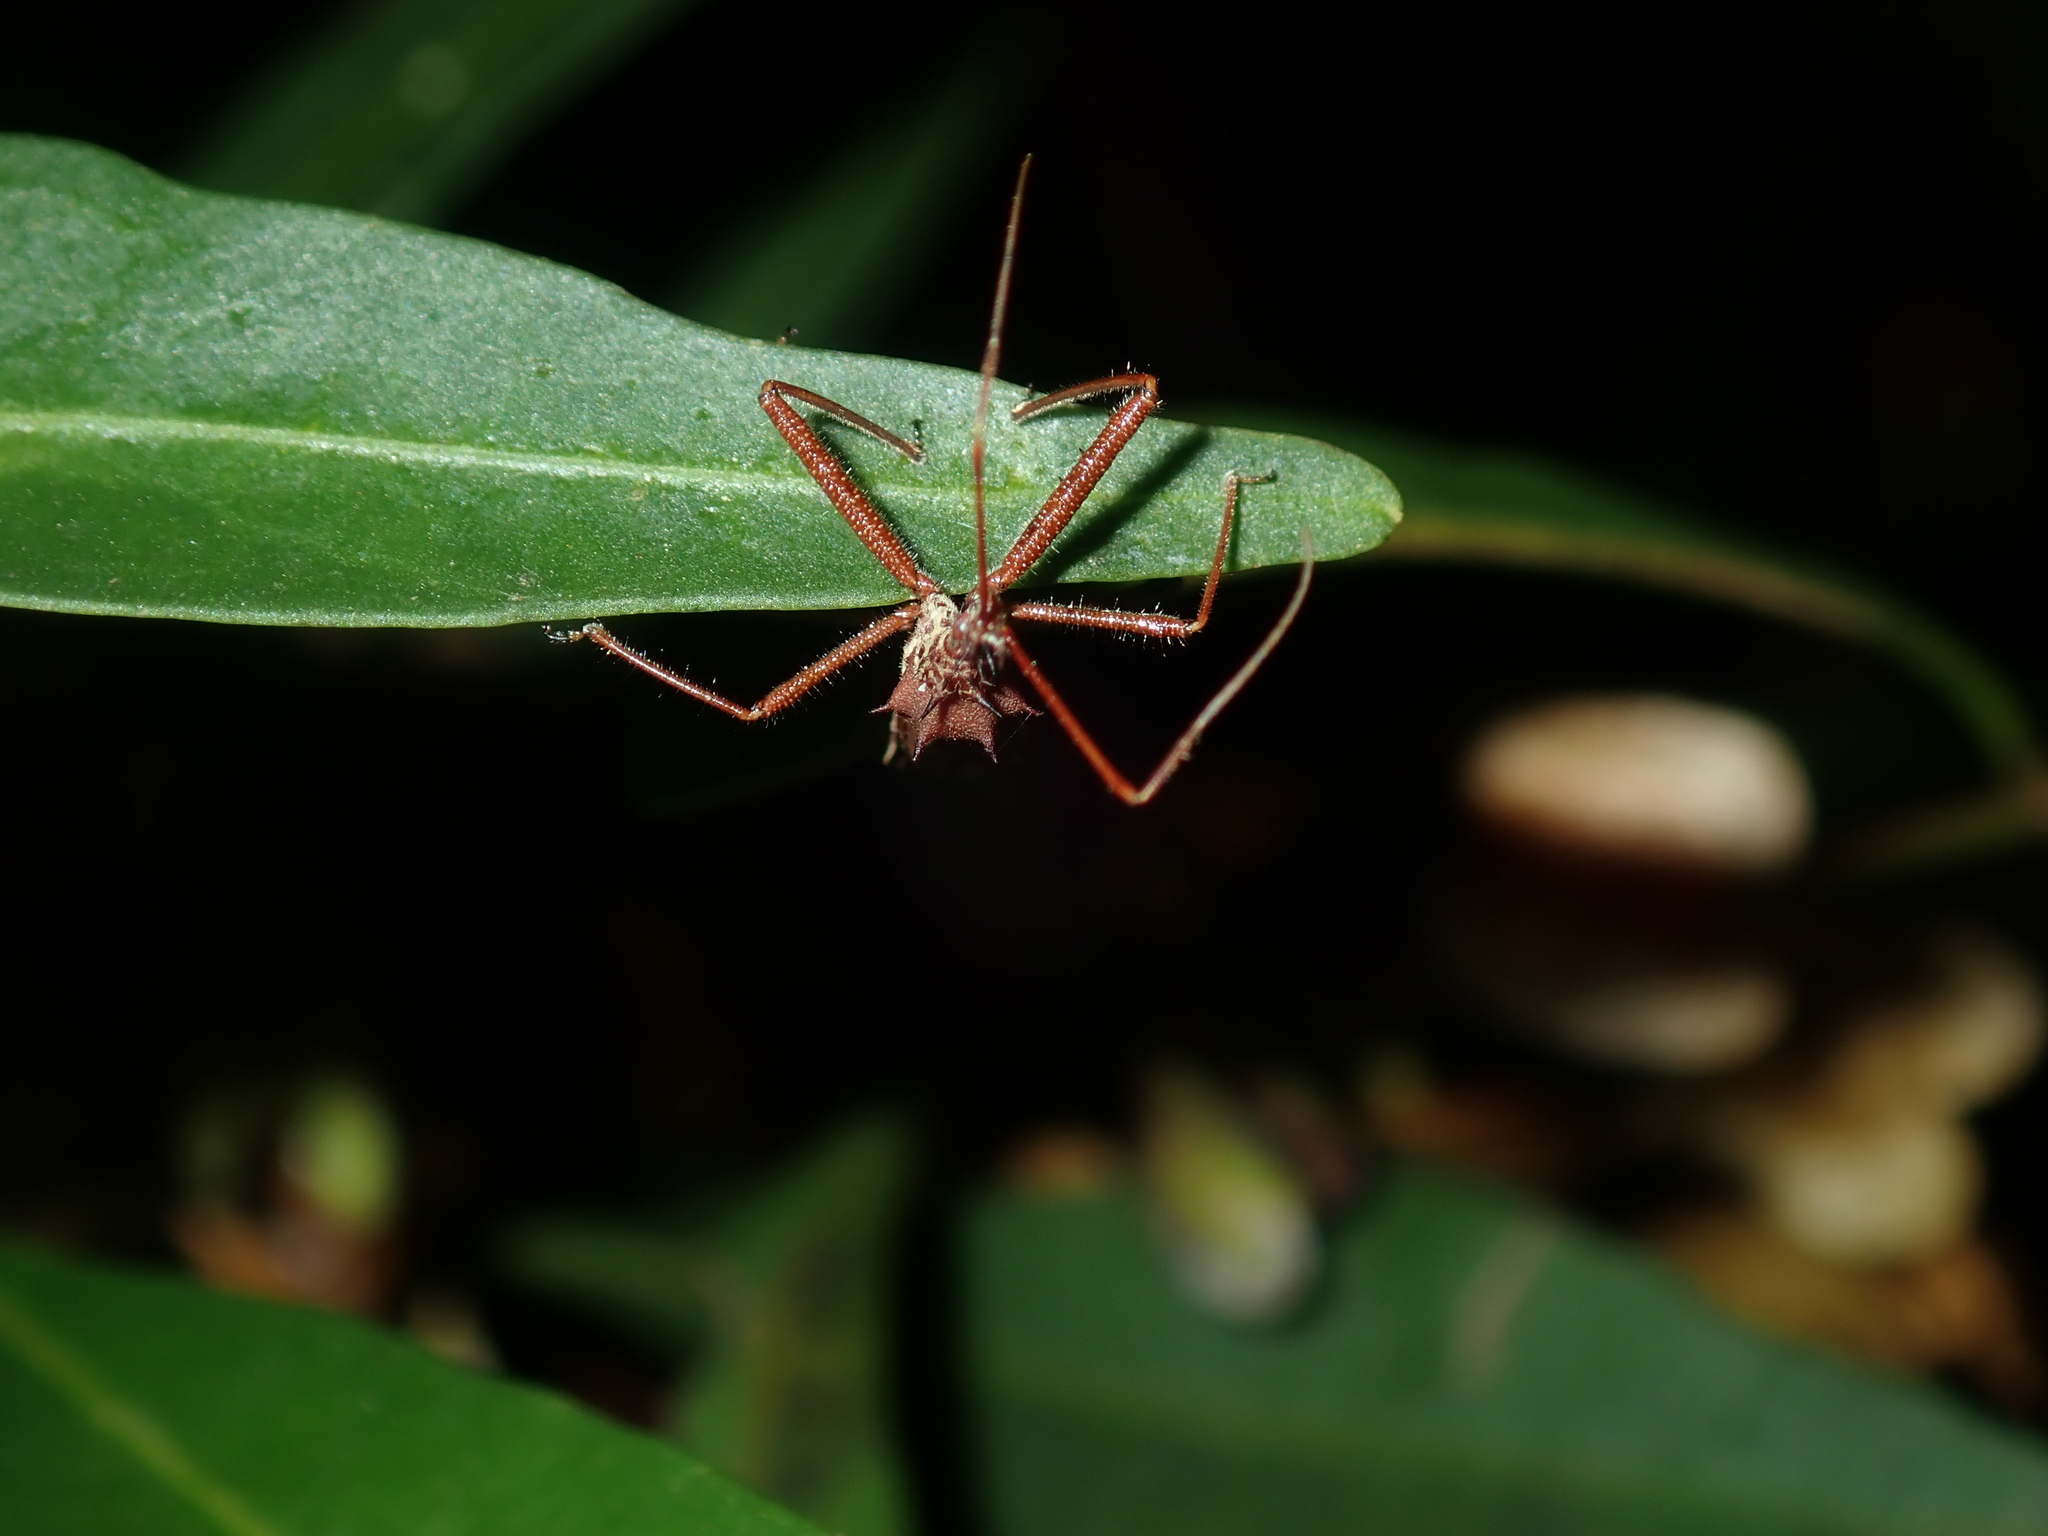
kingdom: Animalia
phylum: Arthropoda
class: Insecta
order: Hemiptera
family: Reduviidae
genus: Veledella
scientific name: Veledella raptrix
